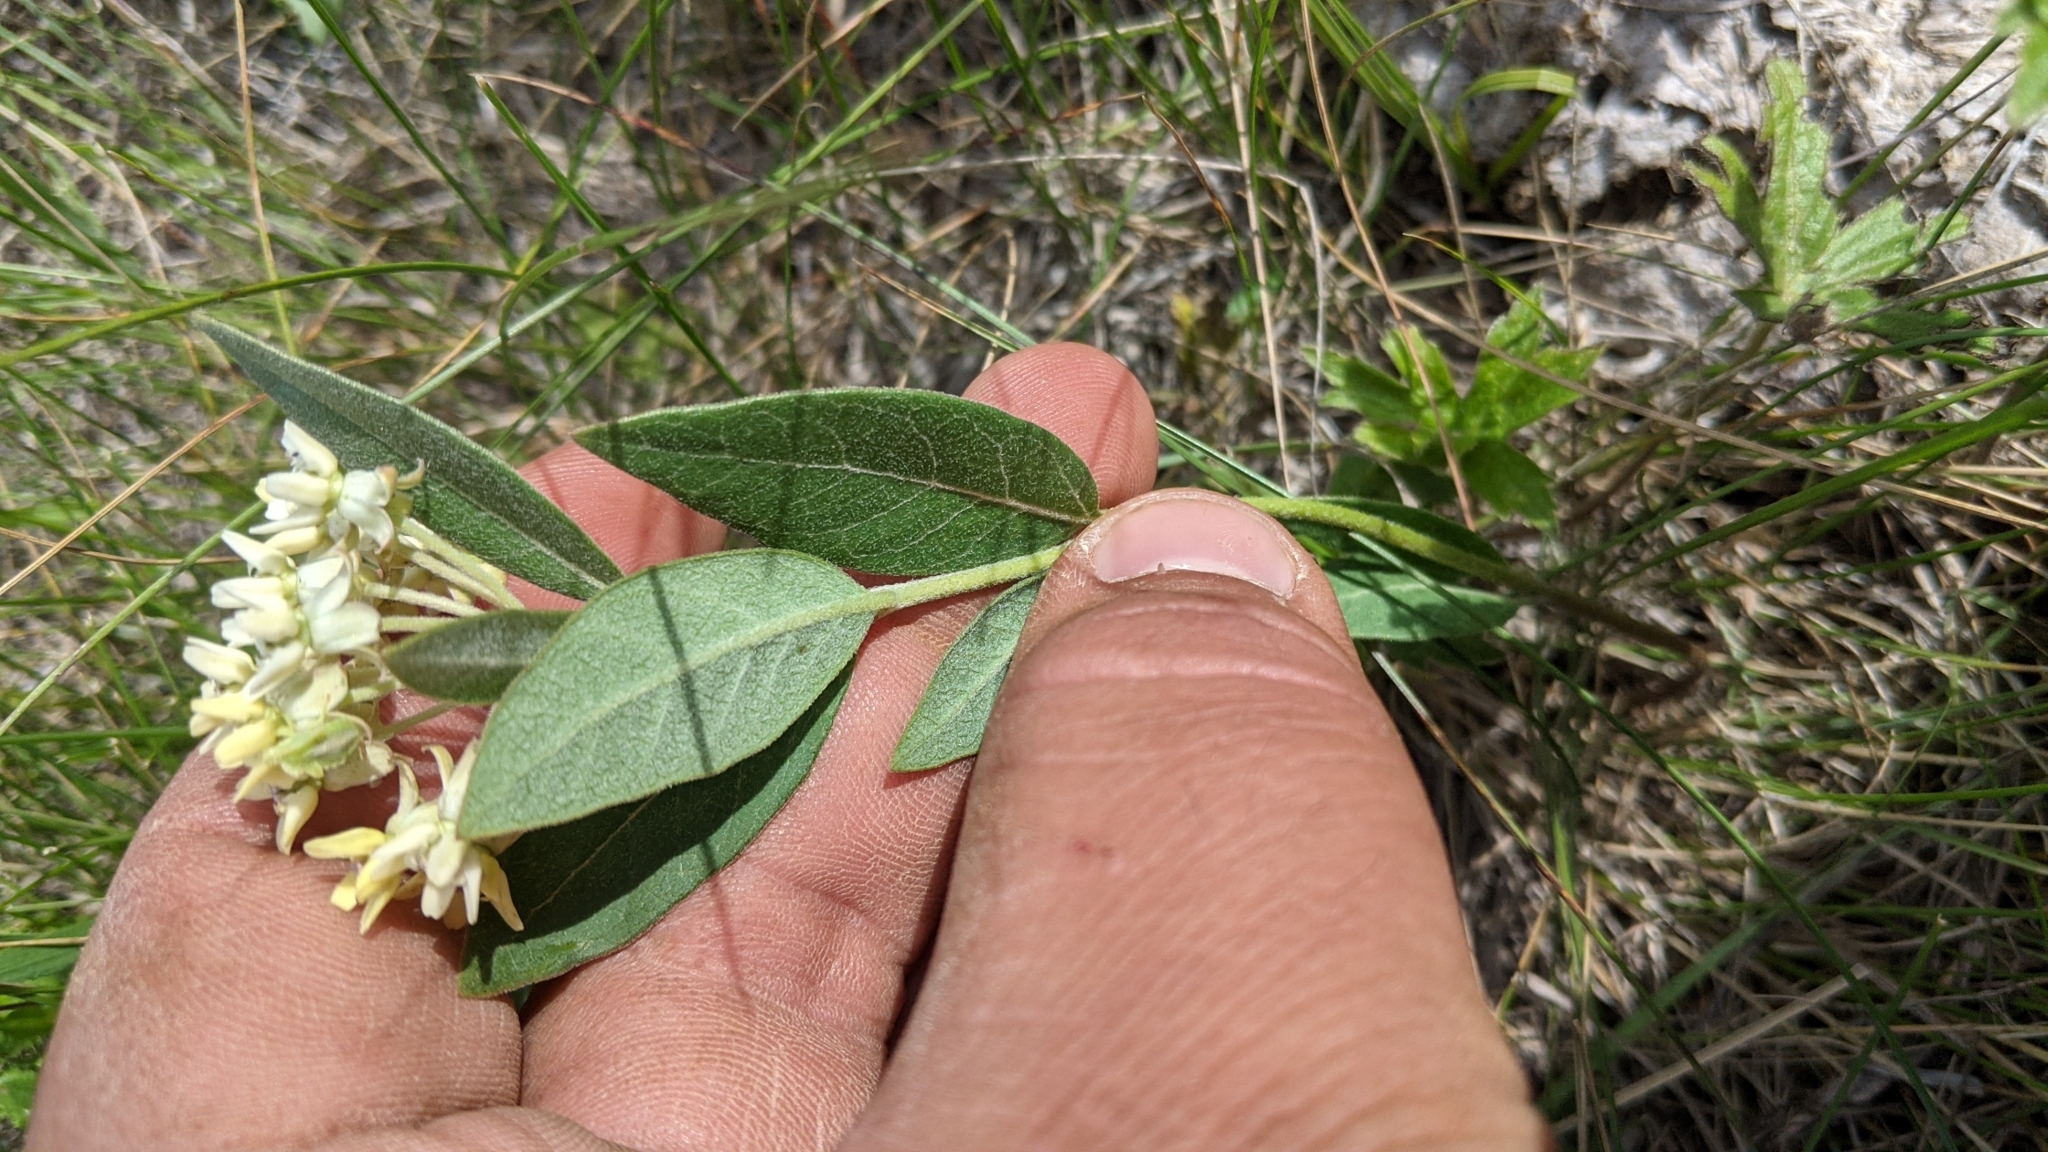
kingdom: Plantae
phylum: Tracheophyta
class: Magnoliopsida
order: Gentianales
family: Apocynaceae
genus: Asclepias
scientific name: Asclepias ovalifolia
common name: Dwarf milkweed
